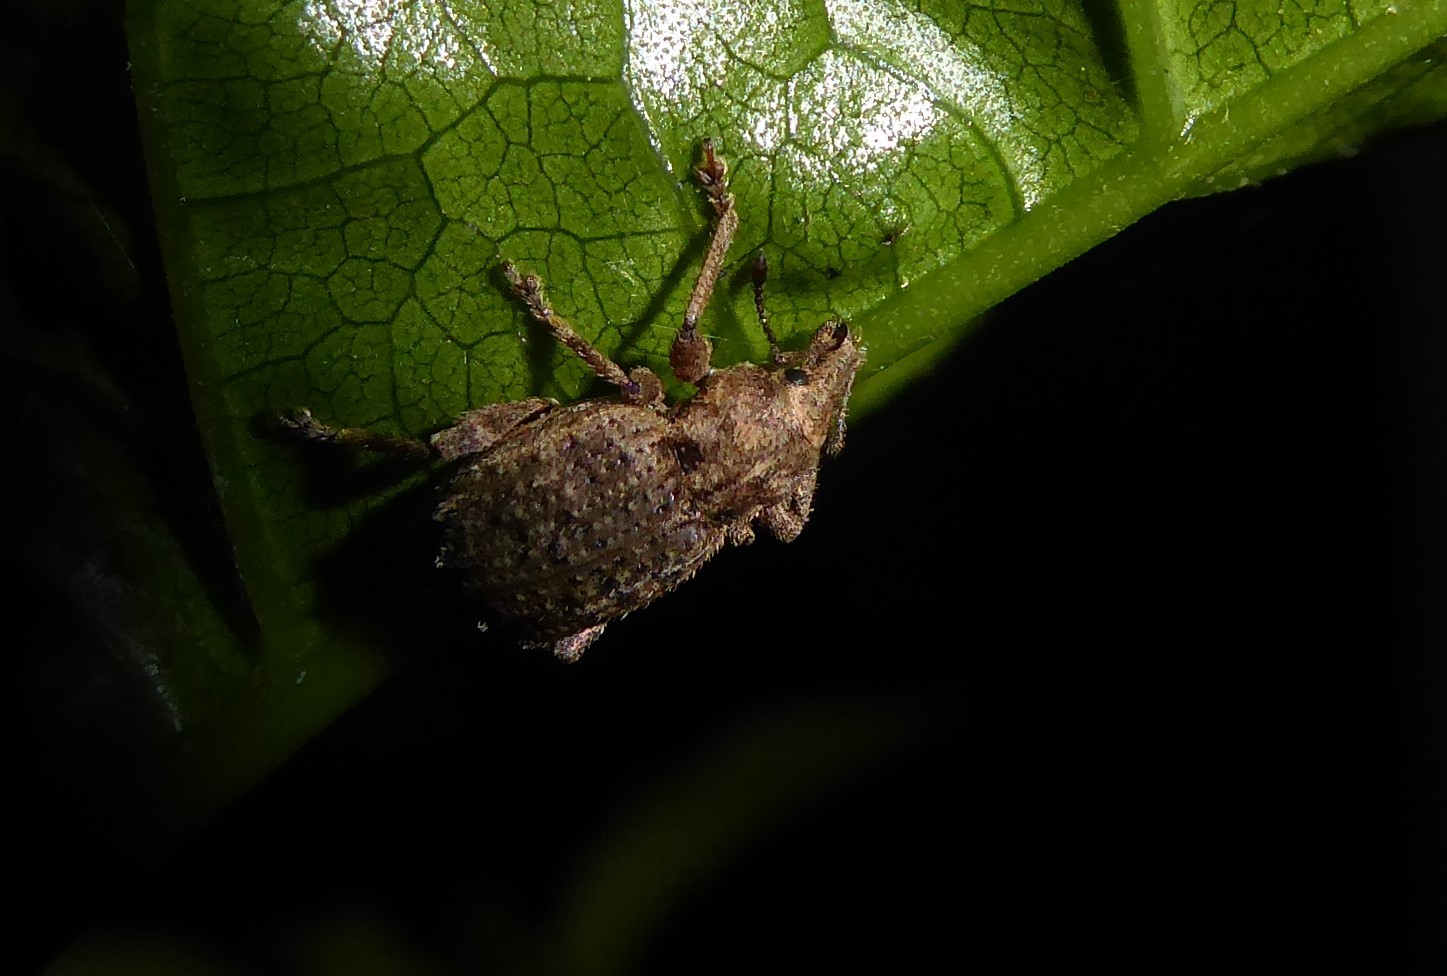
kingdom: Animalia
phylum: Arthropoda
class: Insecta
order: Coleoptera
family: Curculionidae
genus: Chalepistes
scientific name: Chalepistes rubidus
